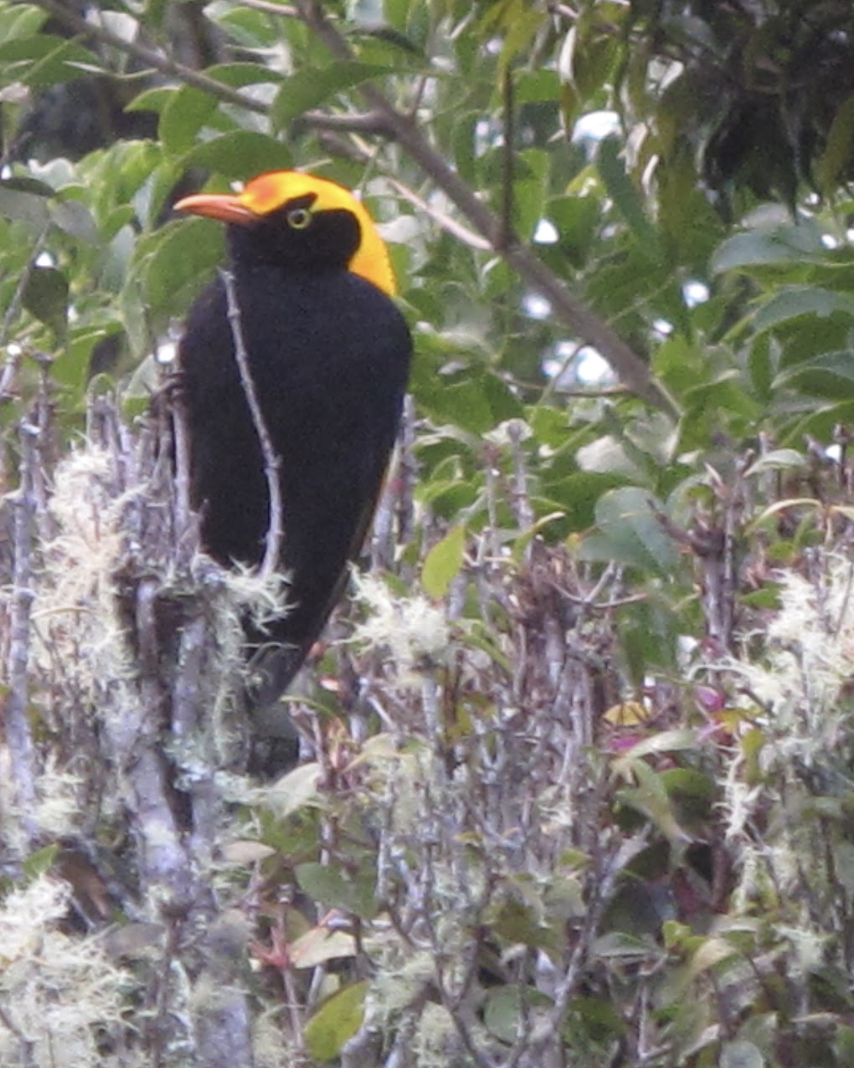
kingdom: Animalia
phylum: Chordata
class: Aves
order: Passeriformes
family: Ptilonorhynchidae
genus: Sericulus
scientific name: Sericulus chrysocephalus
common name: Regent bowerbird
